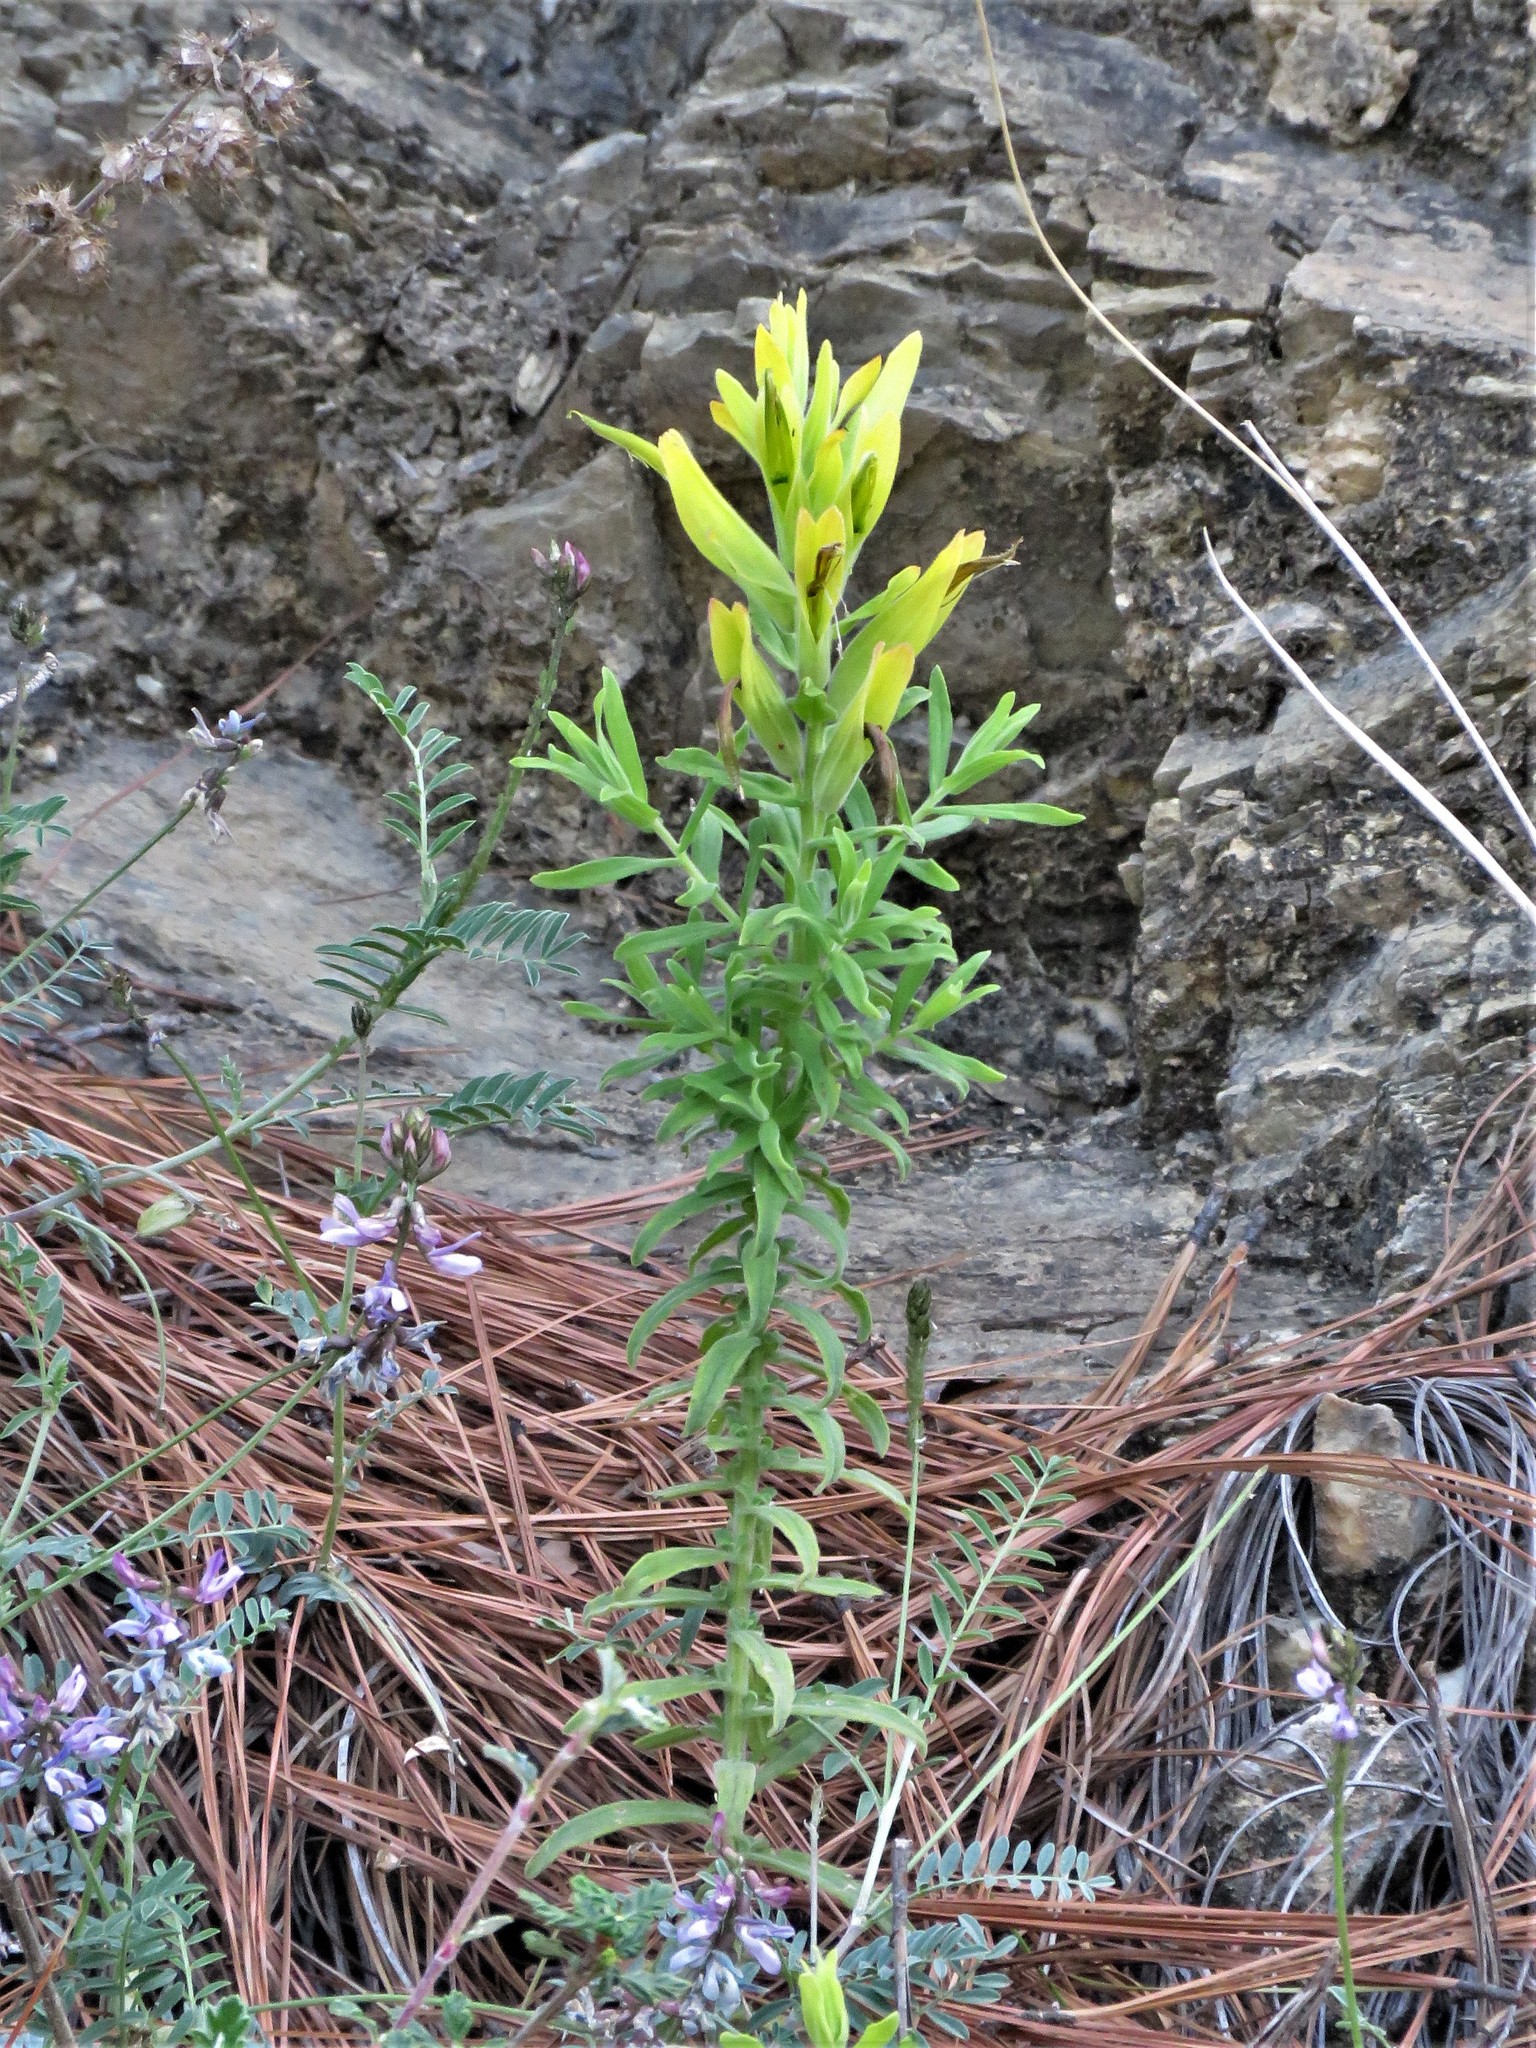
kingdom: Plantae
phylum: Tracheophyta
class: Magnoliopsida
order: Lamiales
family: Orobanchaceae
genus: Castilleja
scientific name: Castilleja tenuiflora
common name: Santa catalina indian paintbrush
